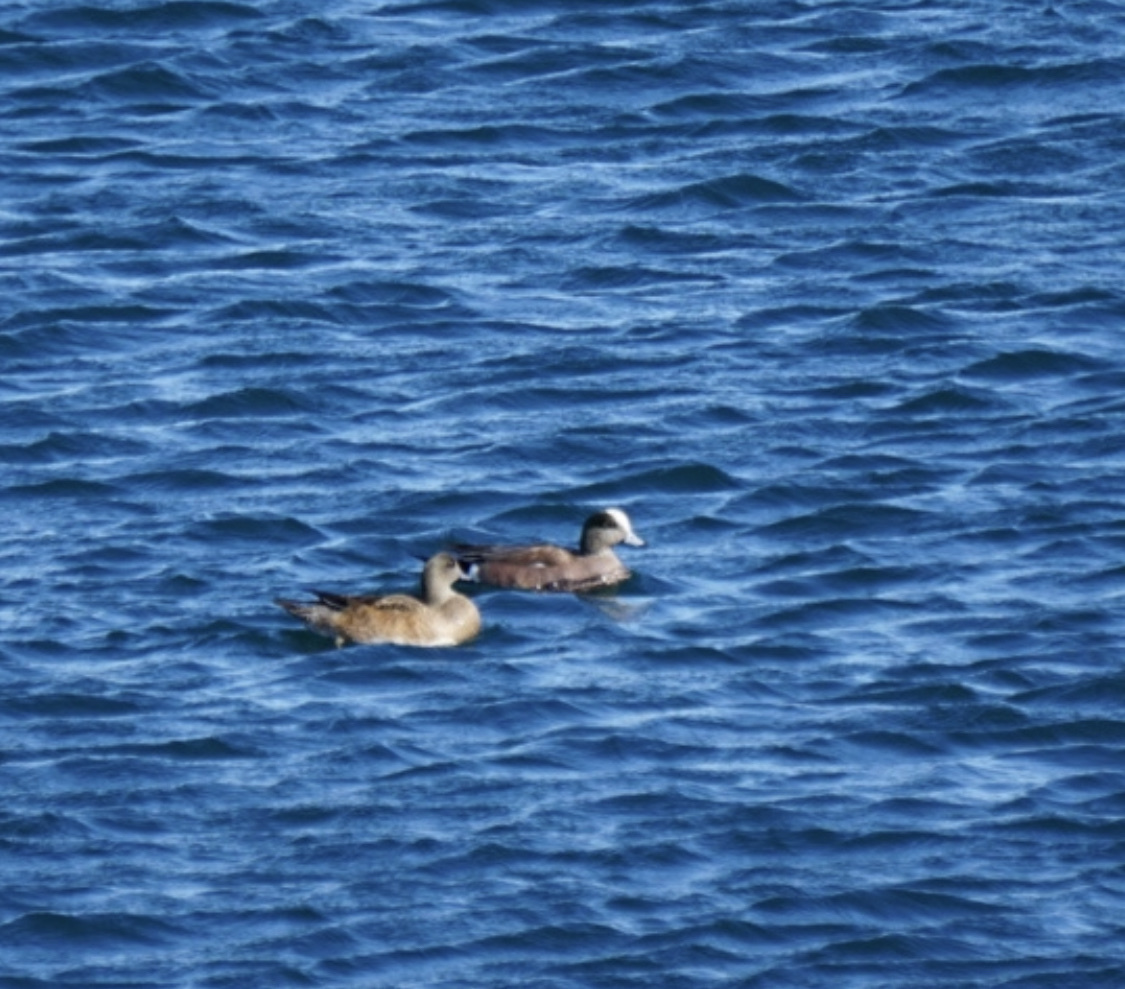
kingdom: Animalia
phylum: Chordata
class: Aves
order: Anseriformes
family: Anatidae
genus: Mareca
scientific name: Mareca americana
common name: American wigeon
